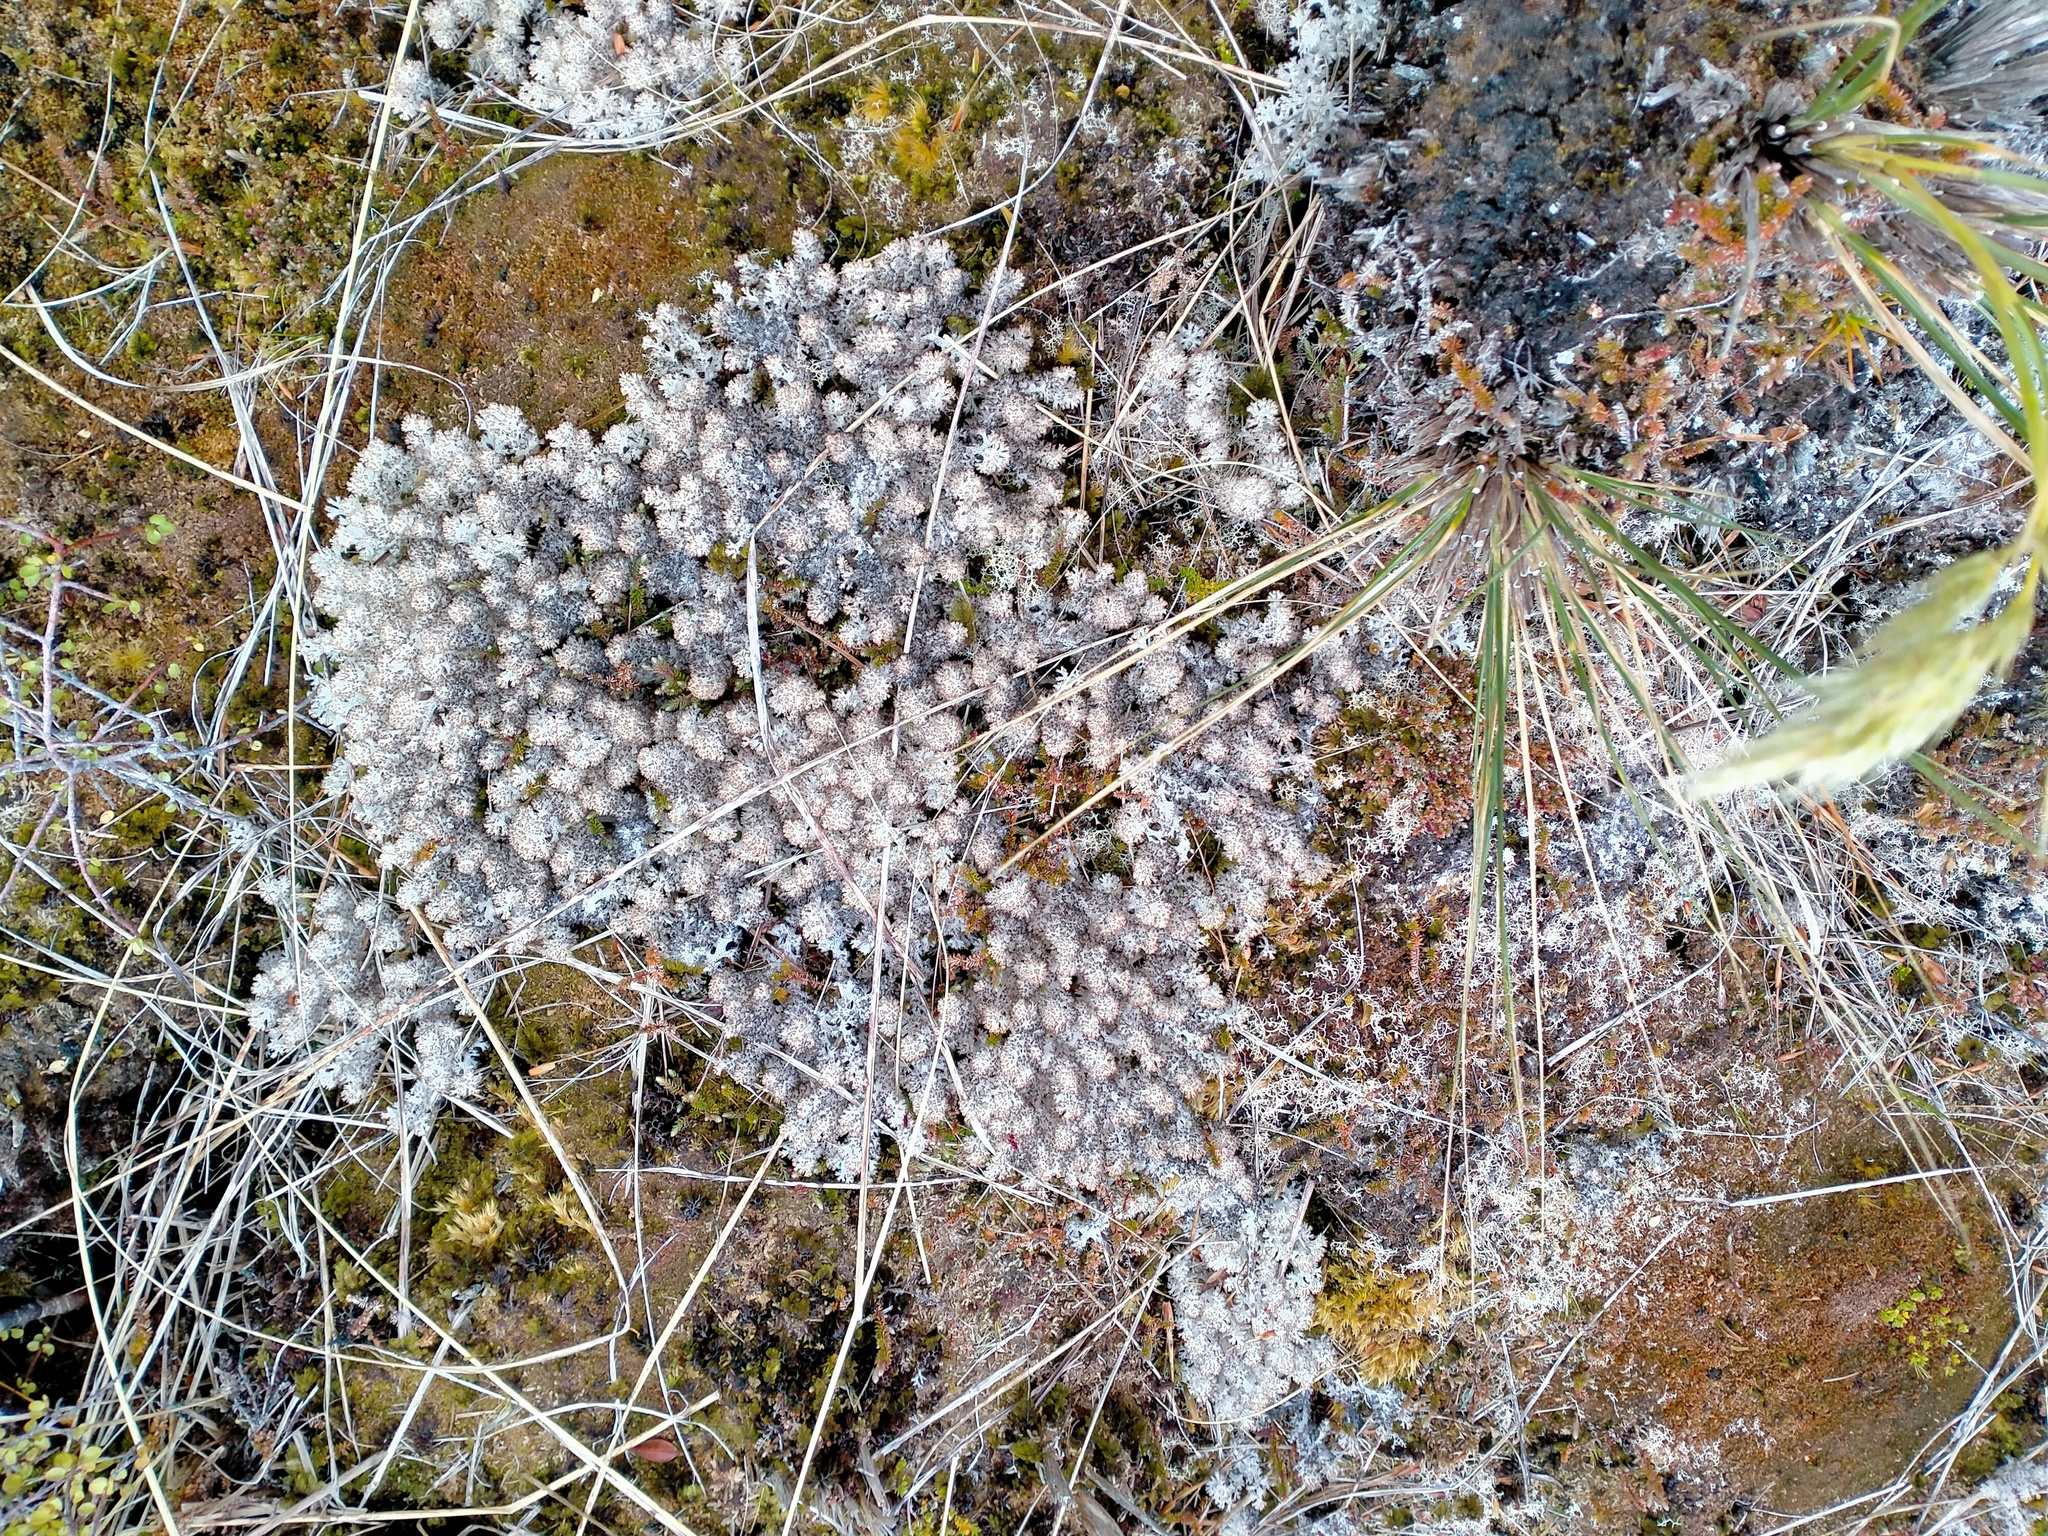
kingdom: Fungi
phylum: Ascomycota
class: Lecanoromycetes
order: Lecanorales
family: Cladoniaceae
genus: Pulchrocladia
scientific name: Pulchrocladia retipora
